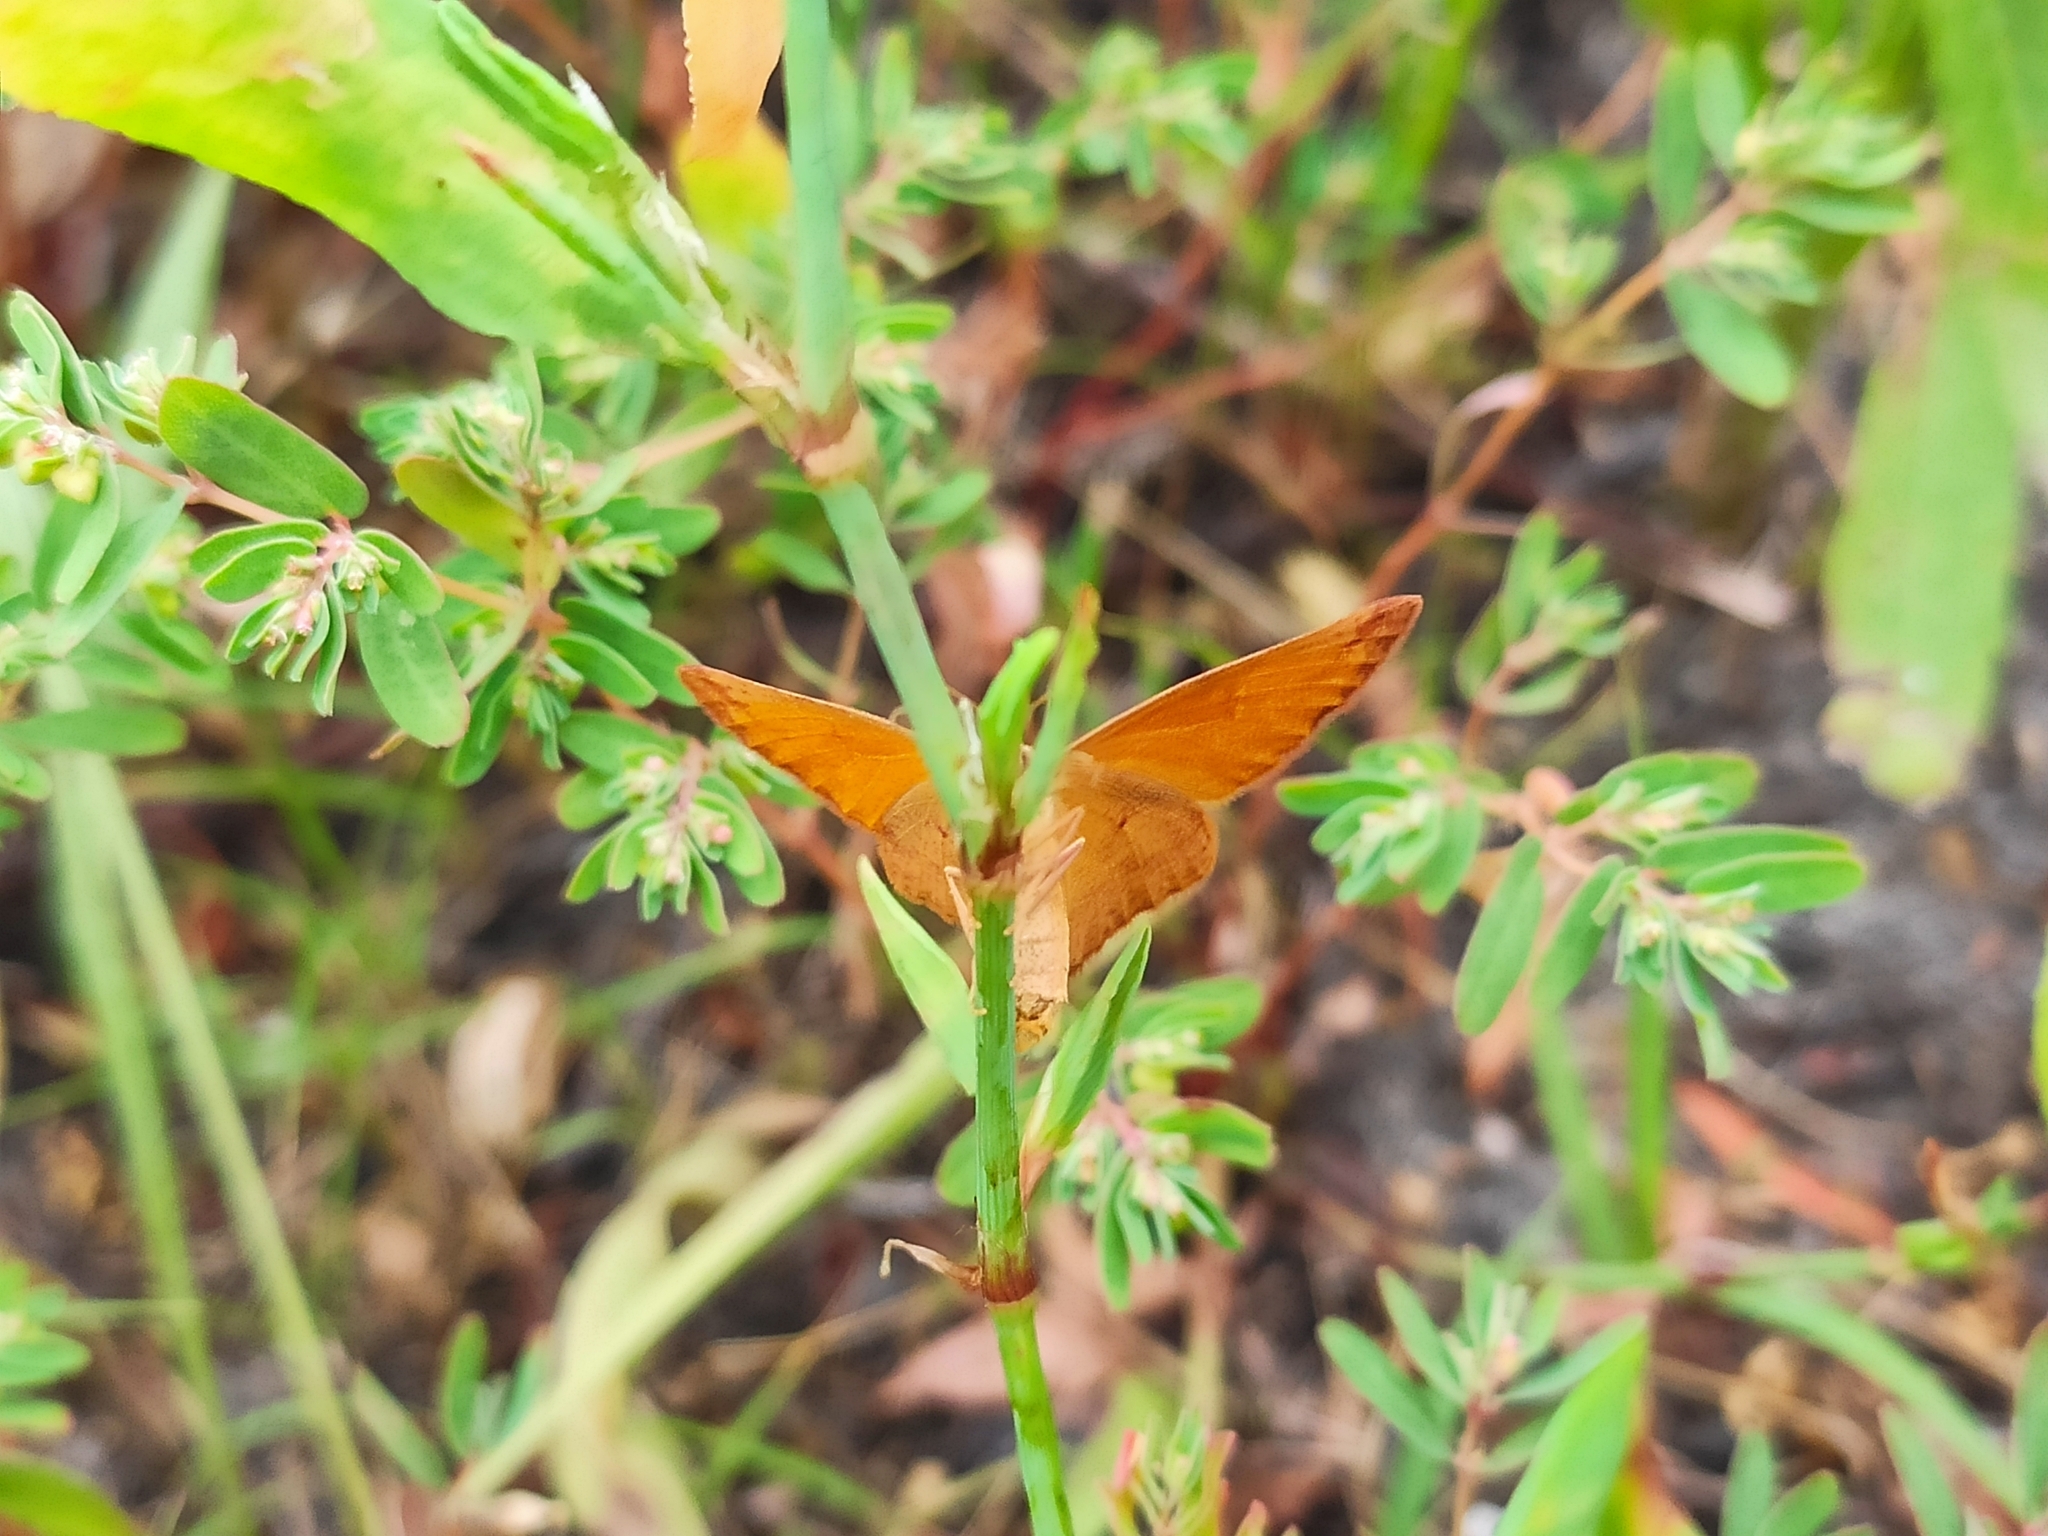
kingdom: Animalia
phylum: Arthropoda
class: Insecta
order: Lepidoptera
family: Geometridae
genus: Lythria
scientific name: Lythria purpuraria
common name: Purple-barred yellow
